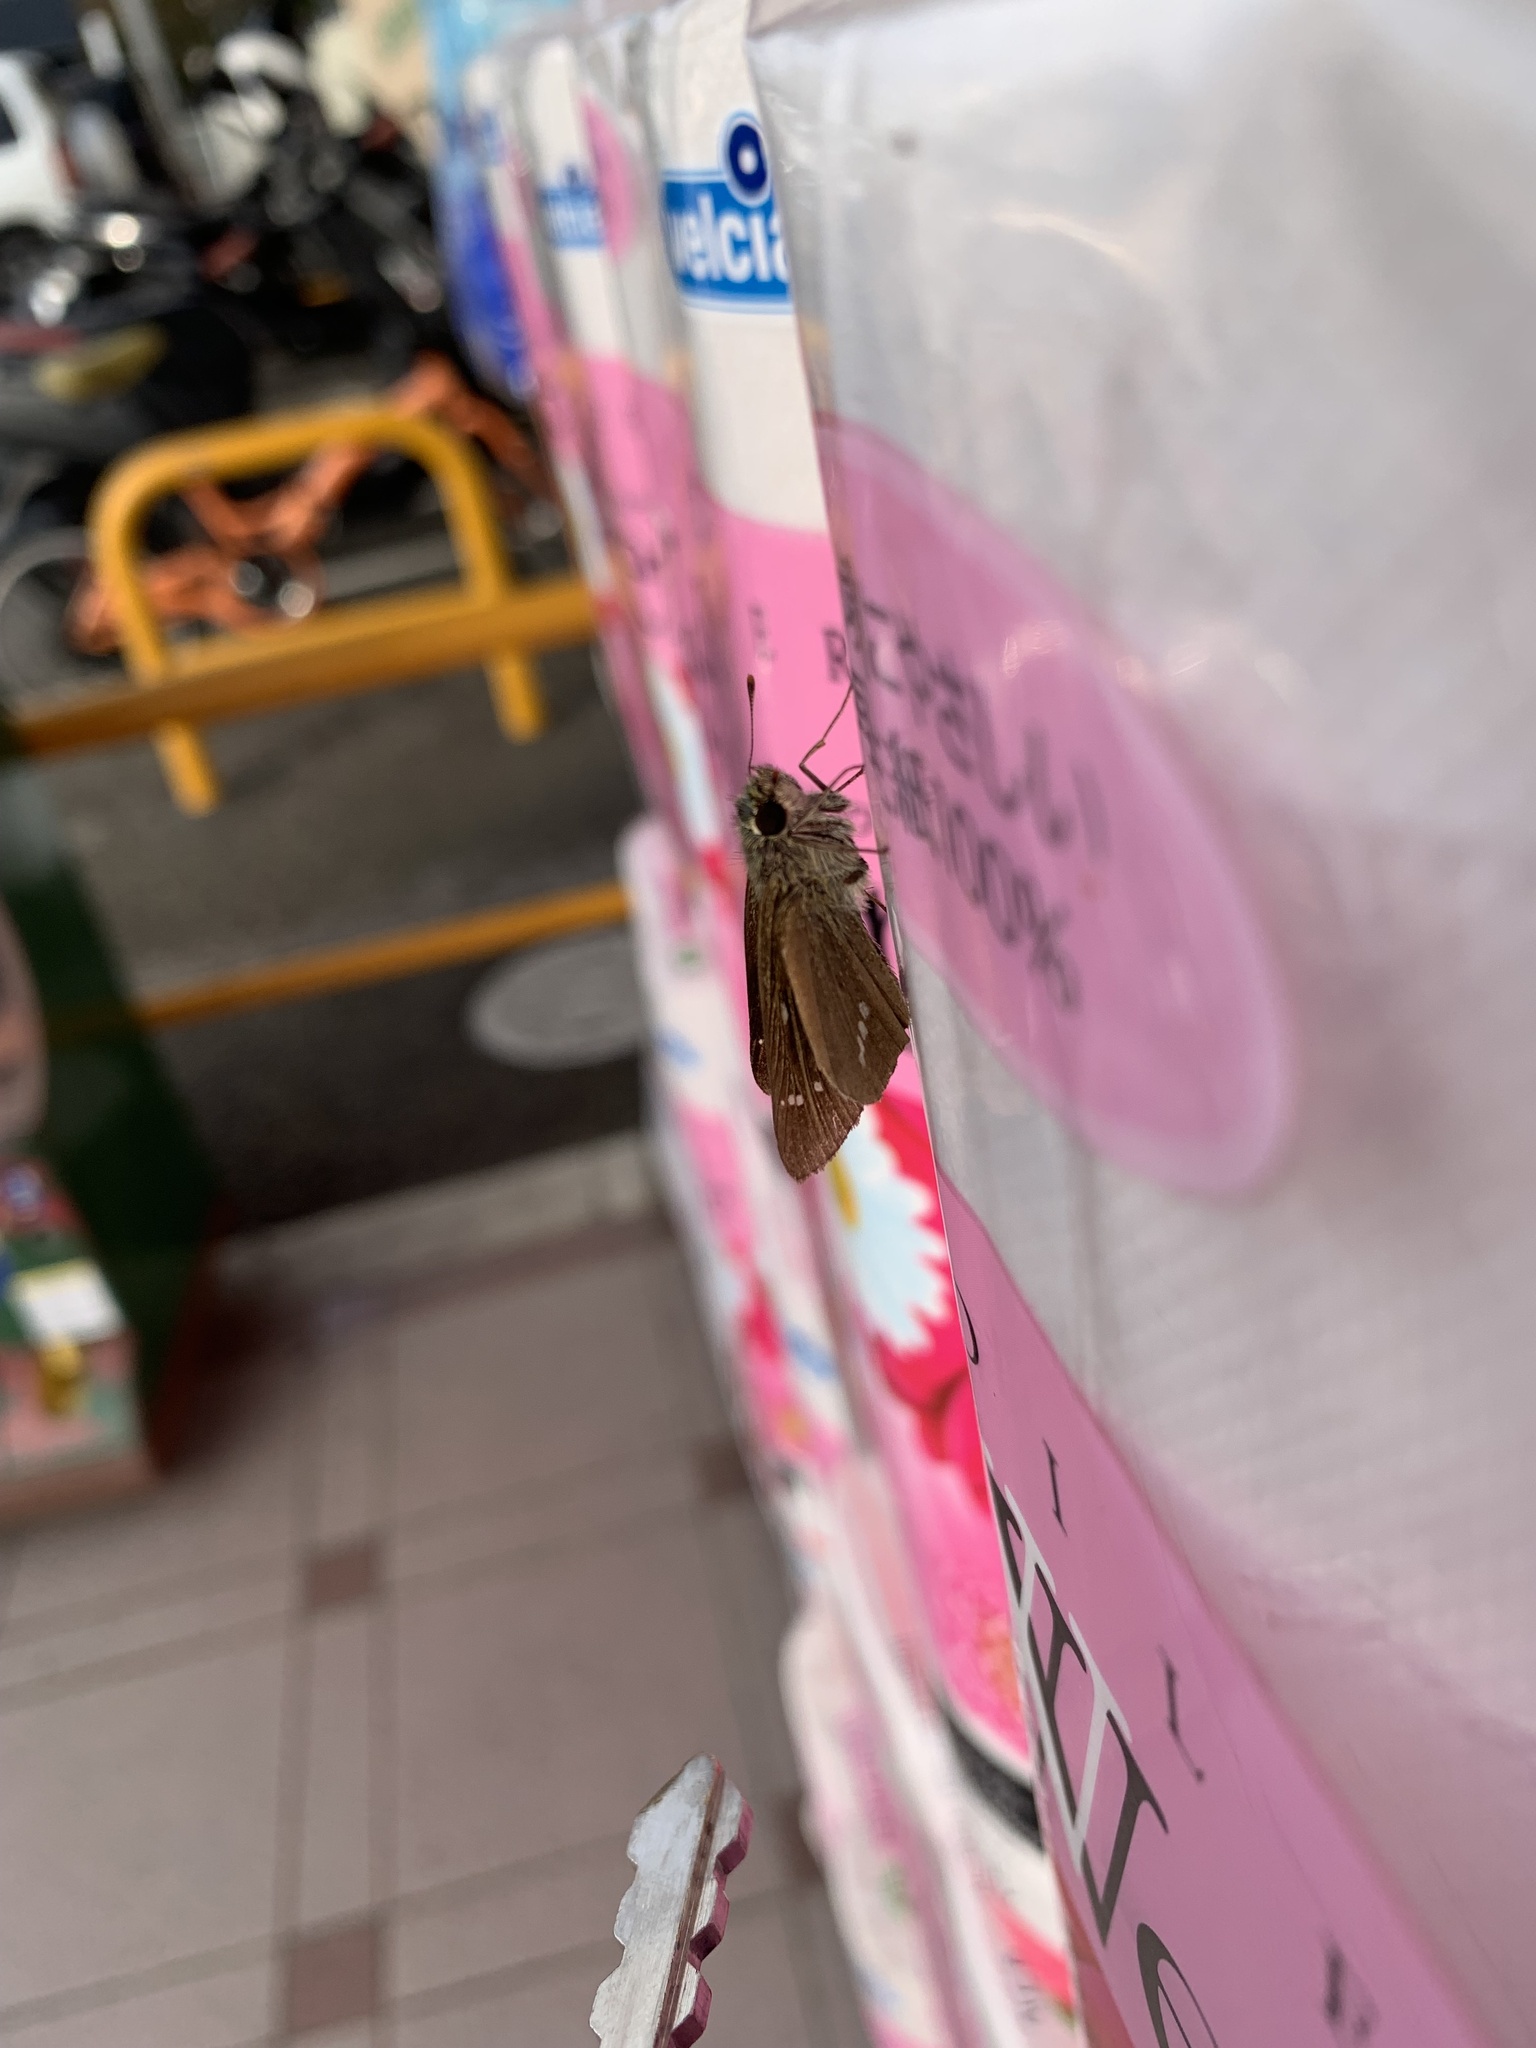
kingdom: Animalia
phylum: Arthropoda
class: Insecta
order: Lepidoptera
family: Hesperiidae
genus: Parnara
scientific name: Parnara guttatus
